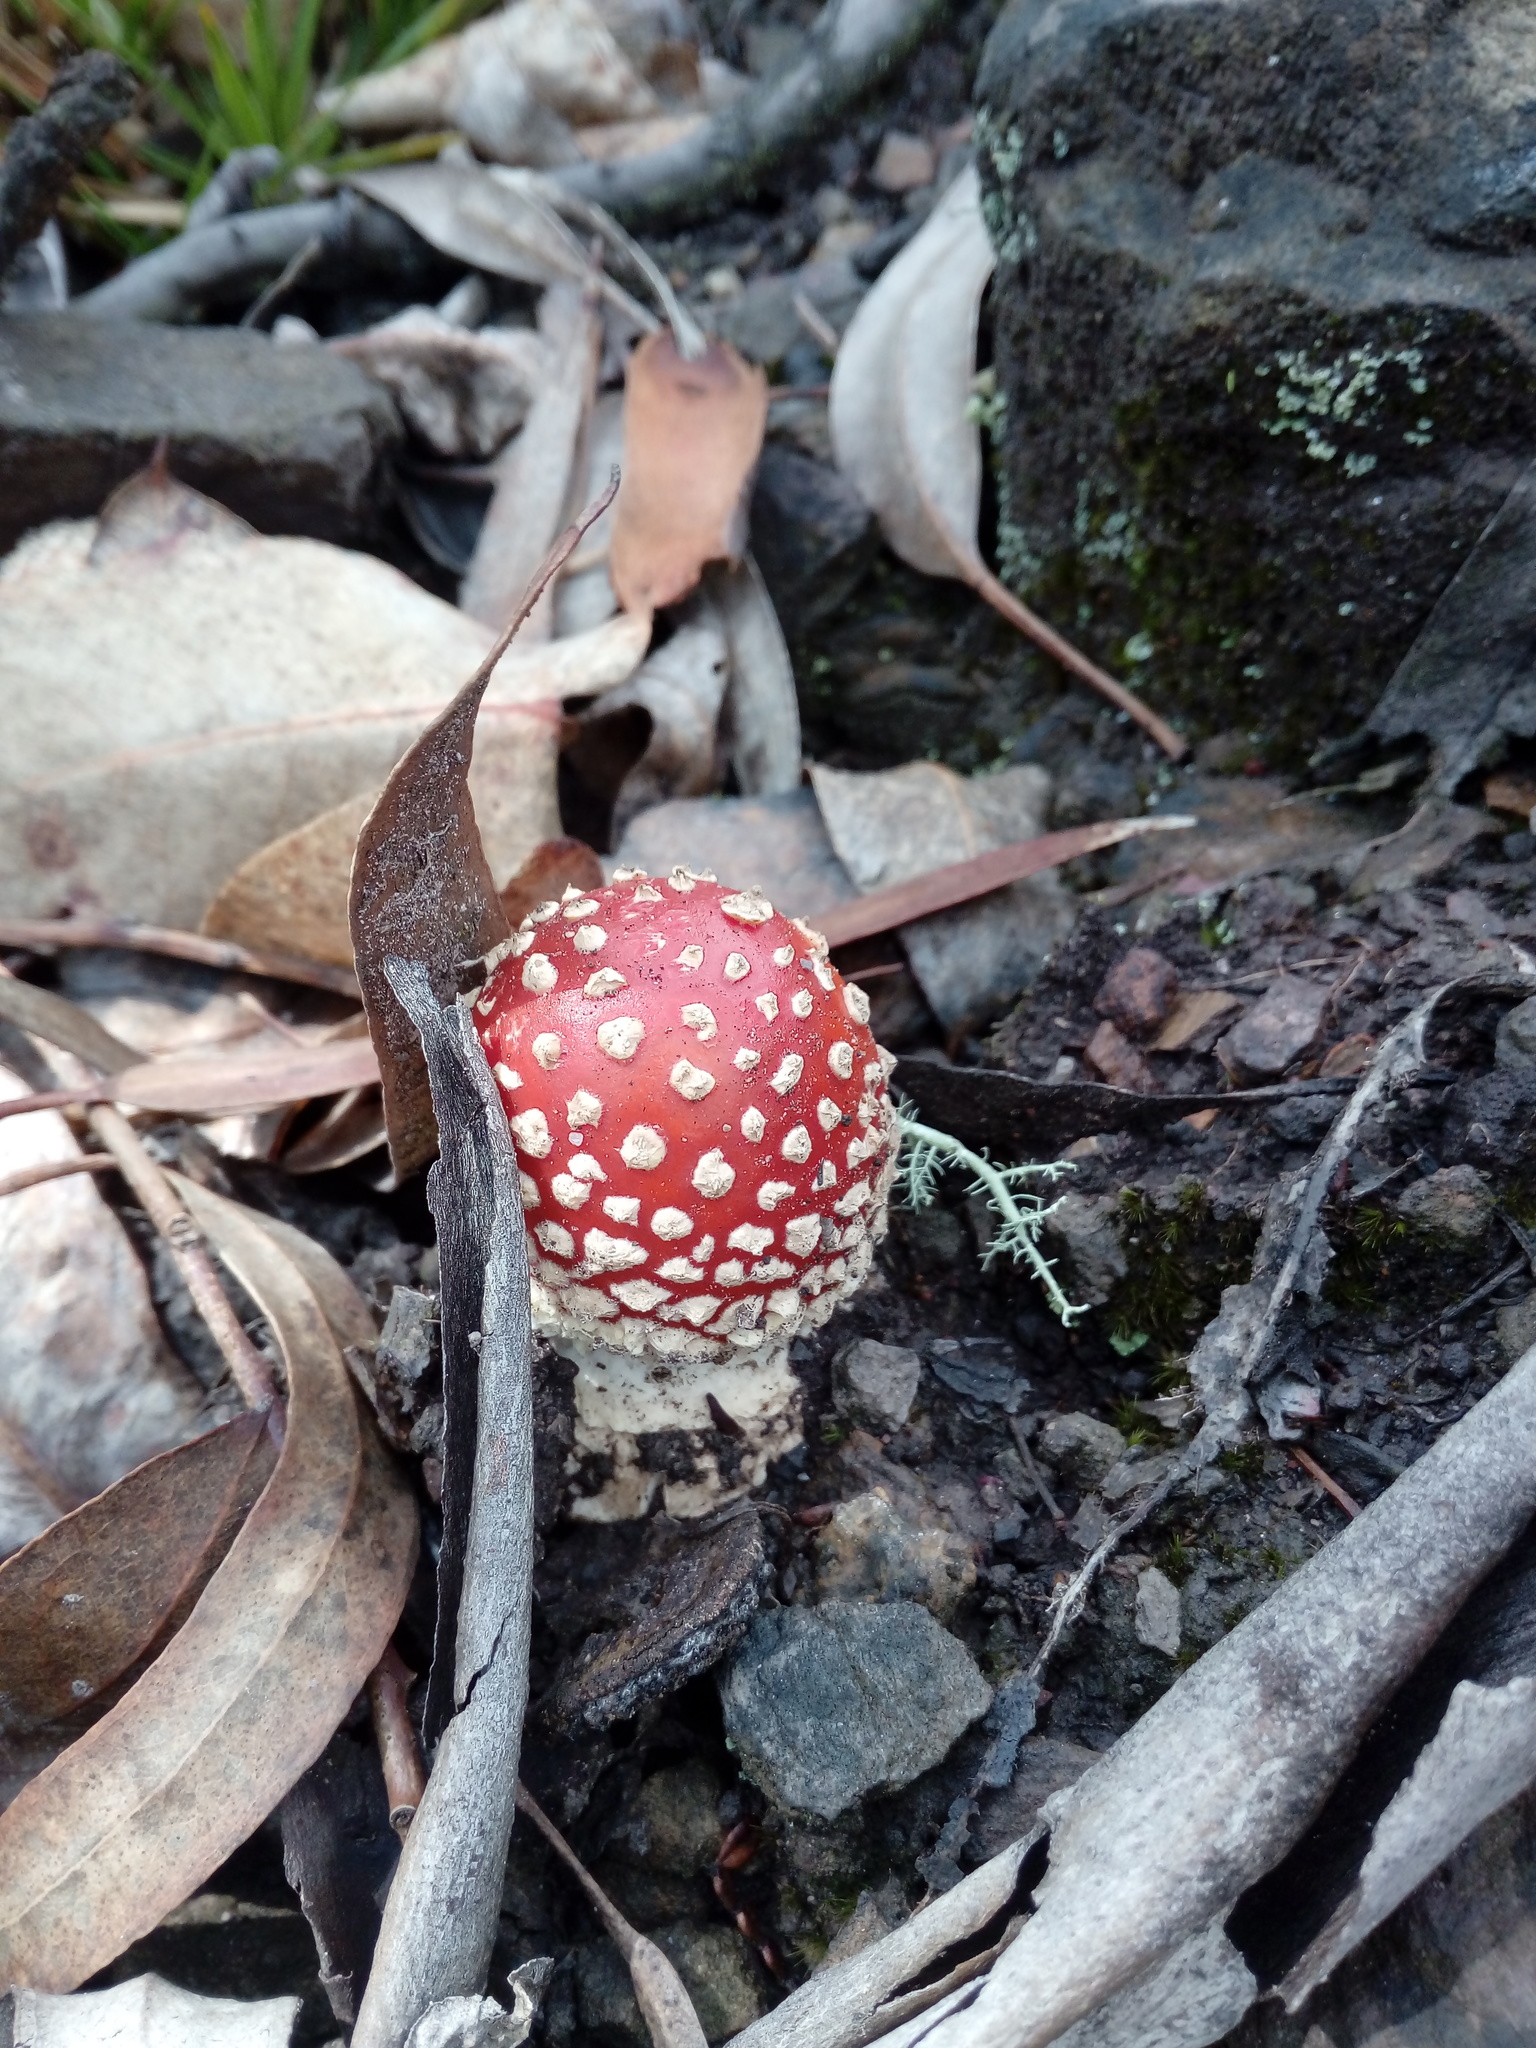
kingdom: Fungi
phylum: Basidiomycota
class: Agaricomycetes
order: Agaricales
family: Amanitaceae
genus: Amanita
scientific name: Amanita muscaria
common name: Fly agaric
